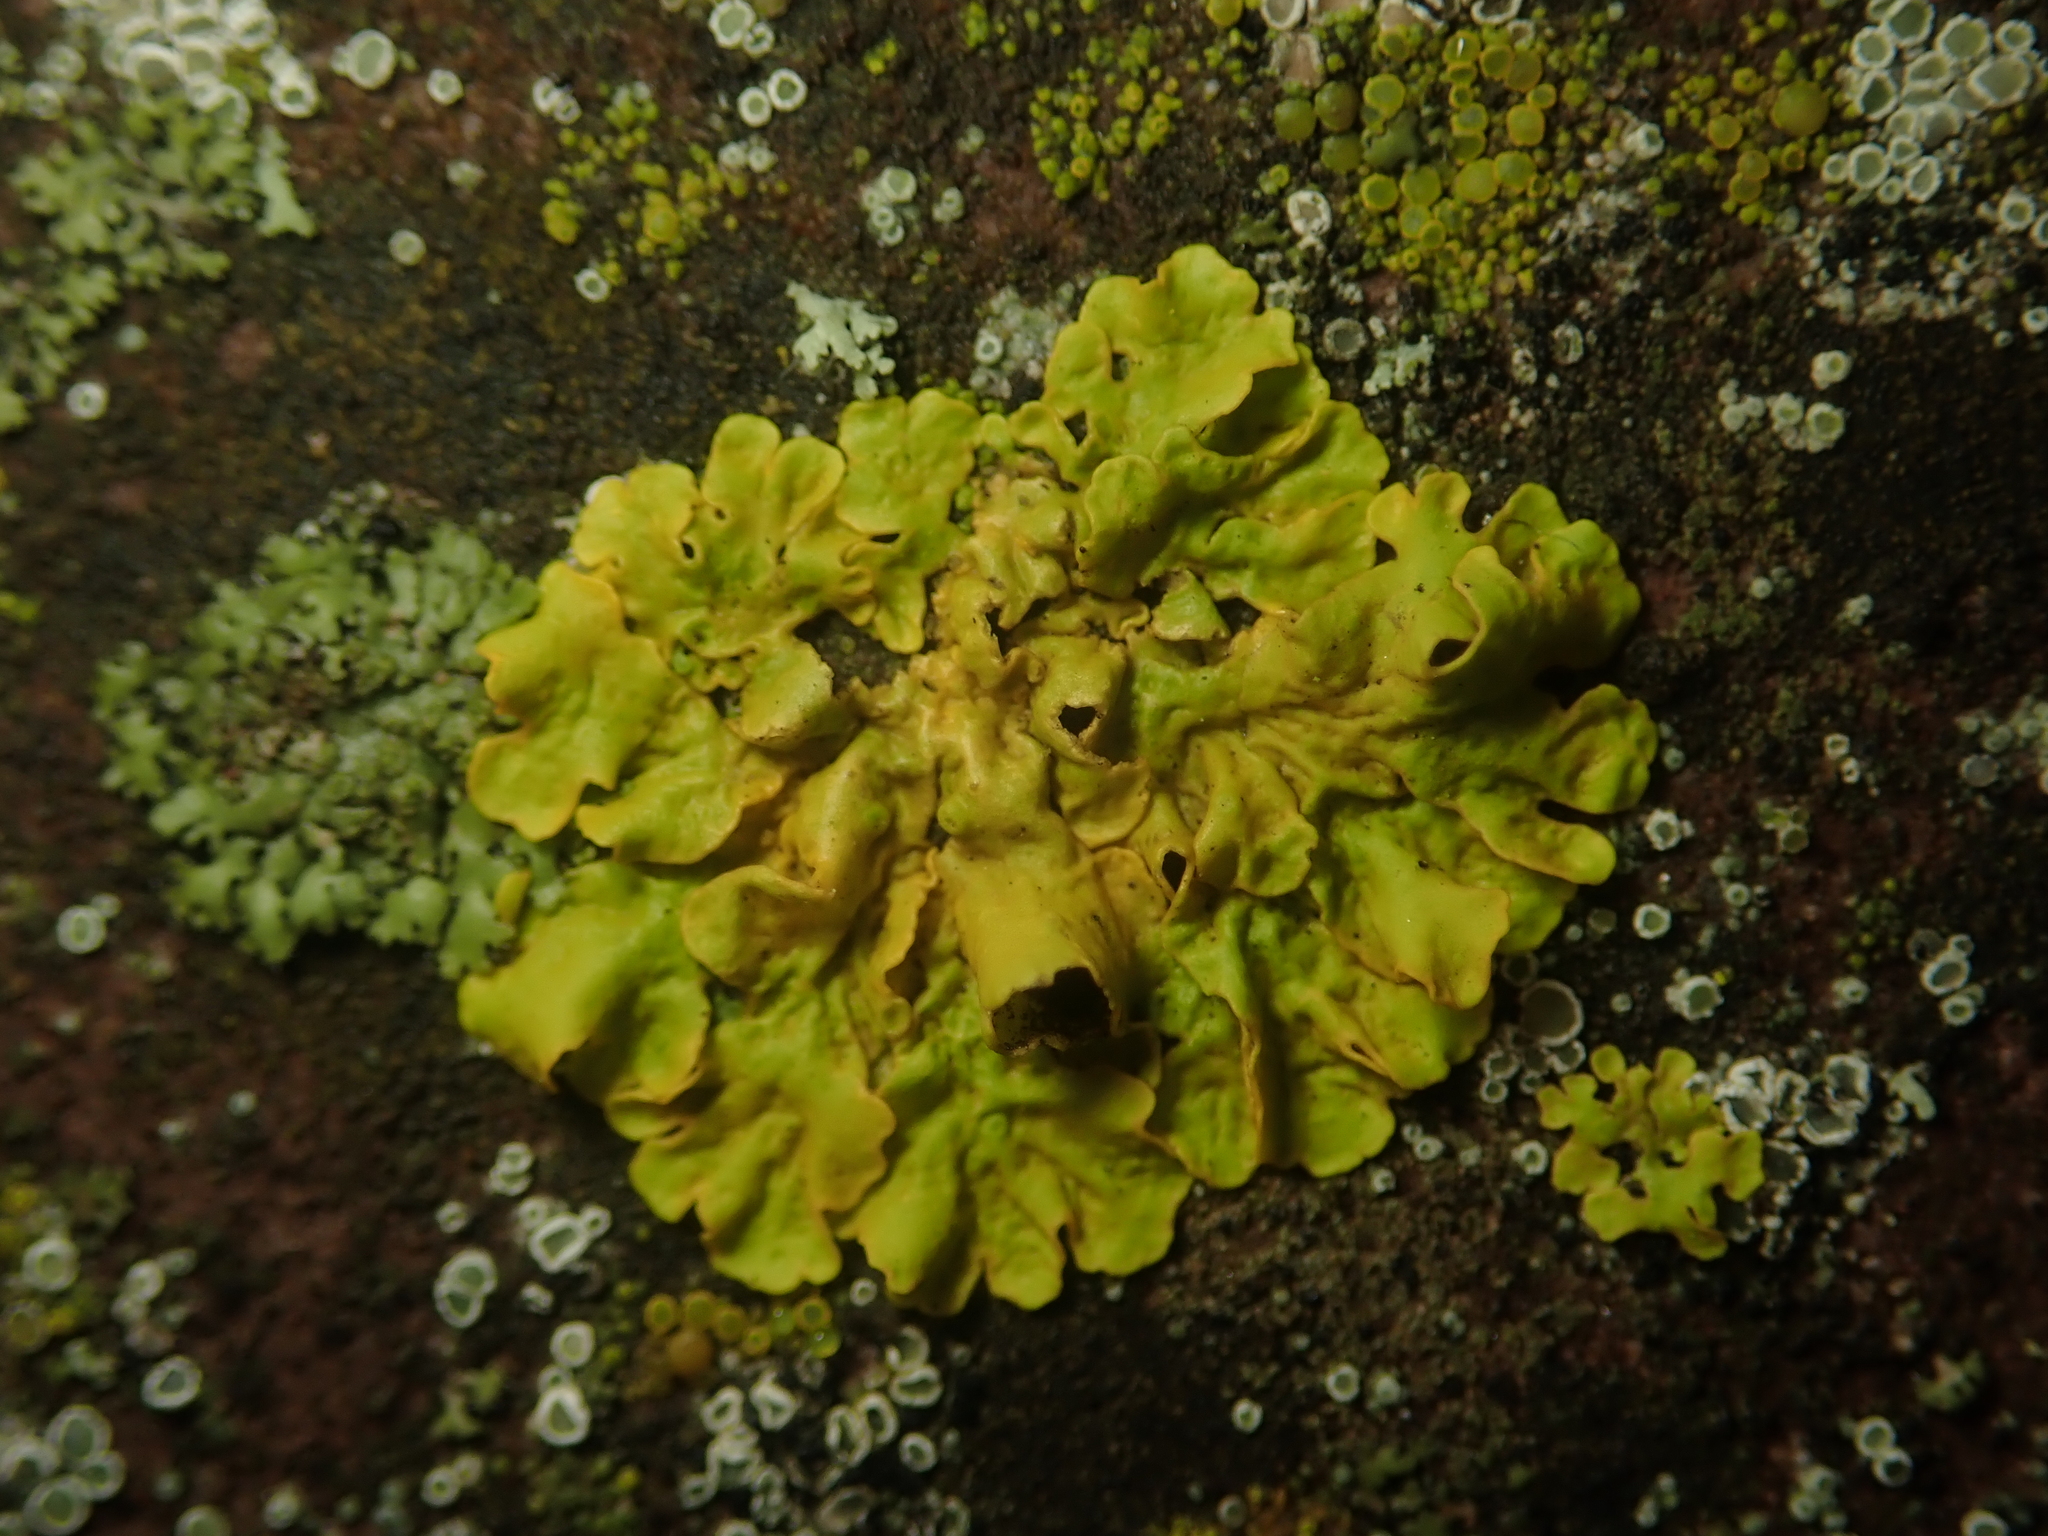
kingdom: Fungi
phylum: Ascomycota
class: Lecanoromycetes
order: Teloschistales
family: Teloschistaceae
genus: Xanthoria
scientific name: Xanthoria parietina
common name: Common orange lichen
